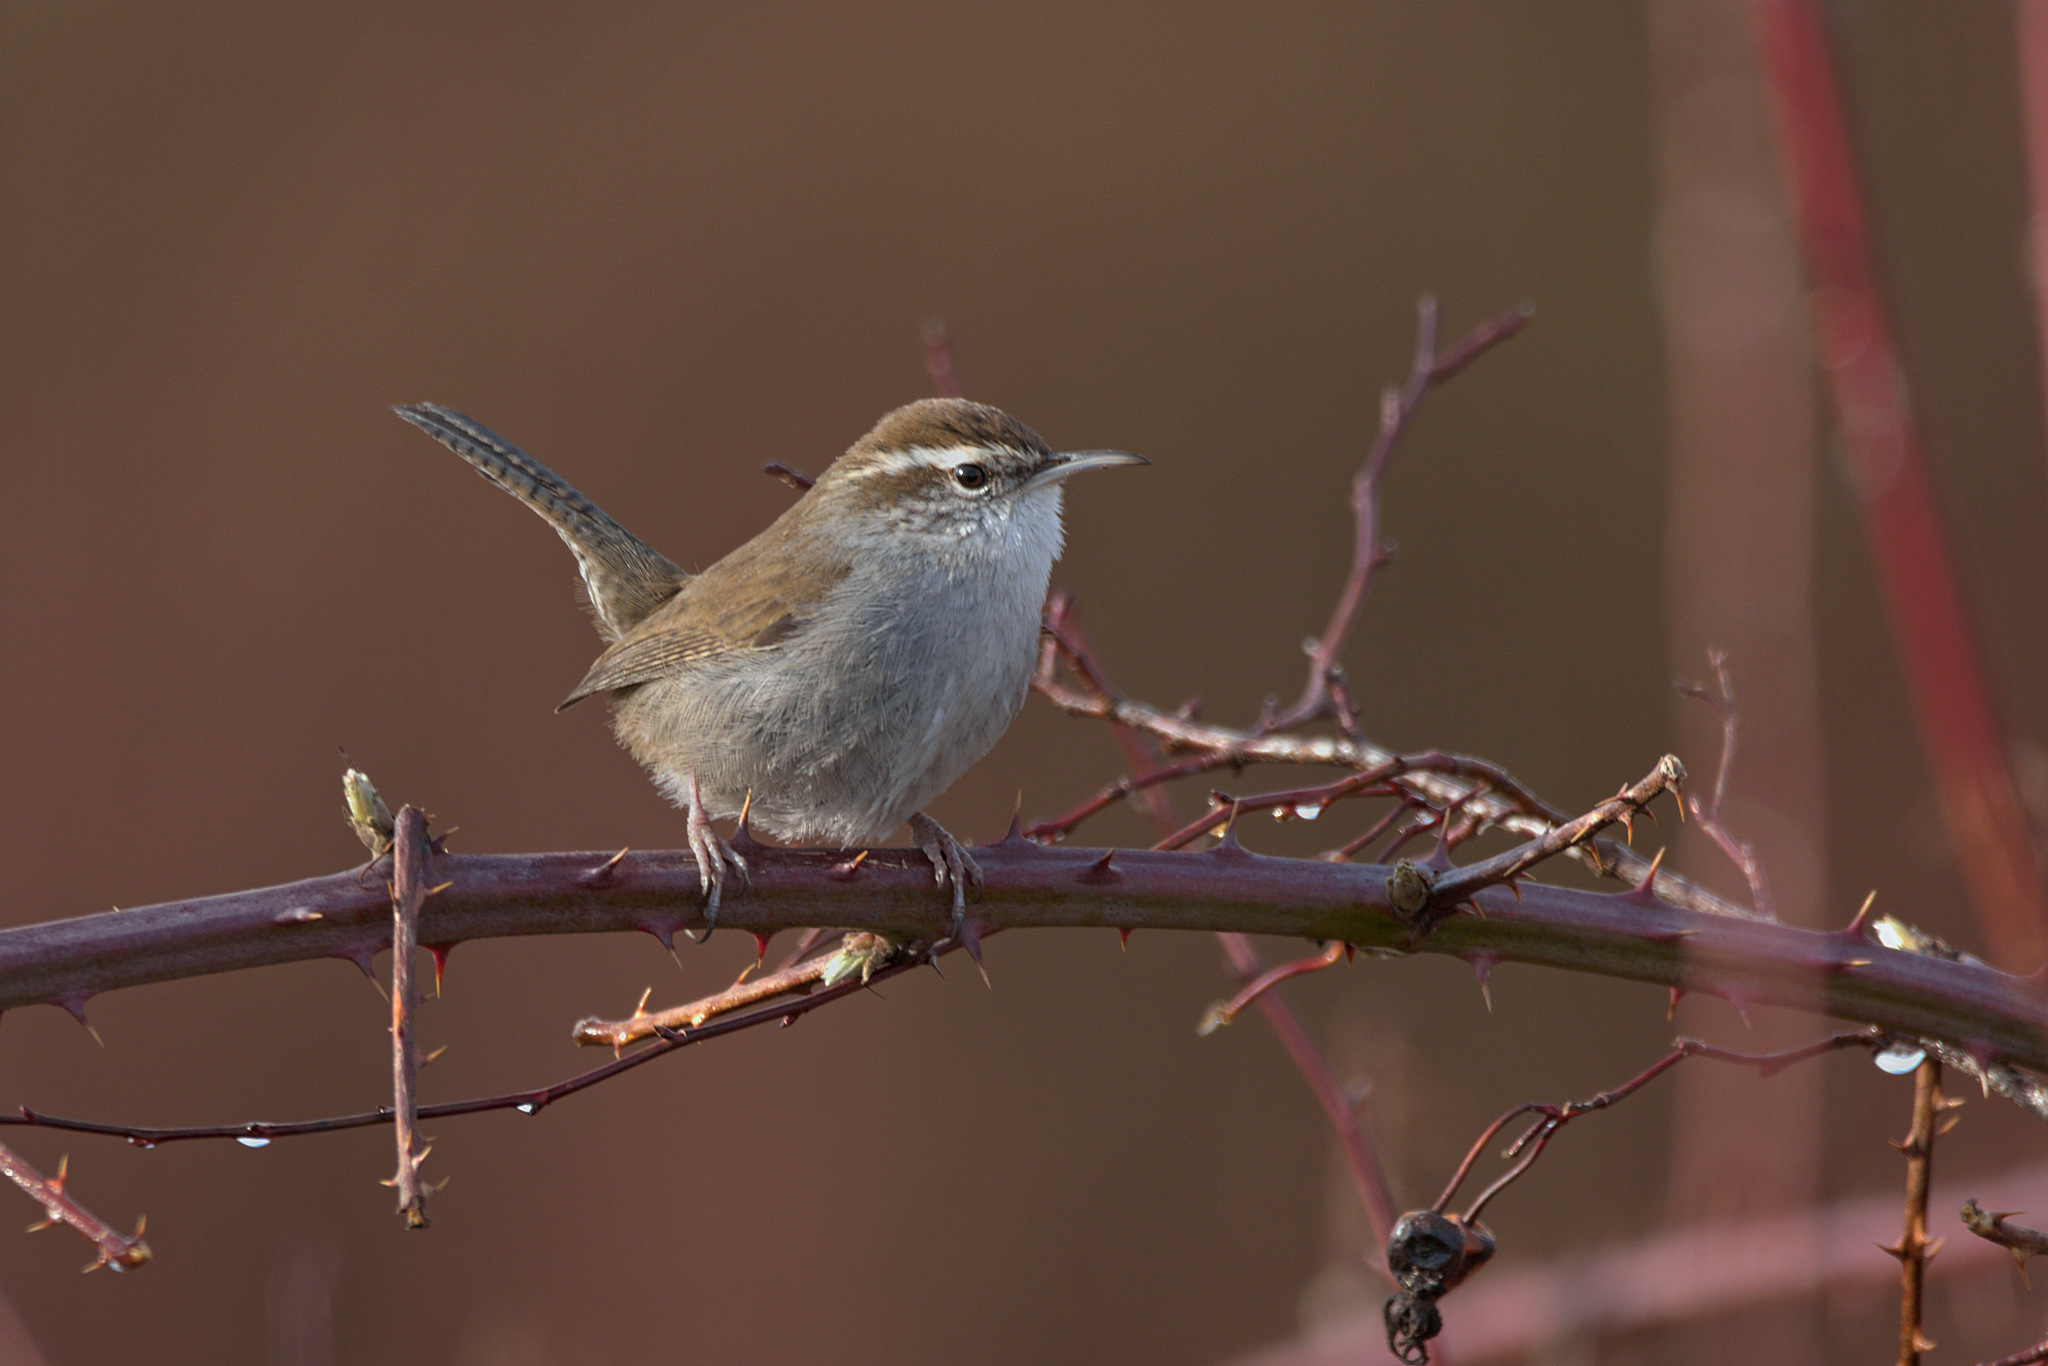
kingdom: Animalia
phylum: Chordata
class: Aves
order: Passeriformes
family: Troglodytidae
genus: Thryomanes
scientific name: Thryomanes bewickii
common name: Bewick's wren
